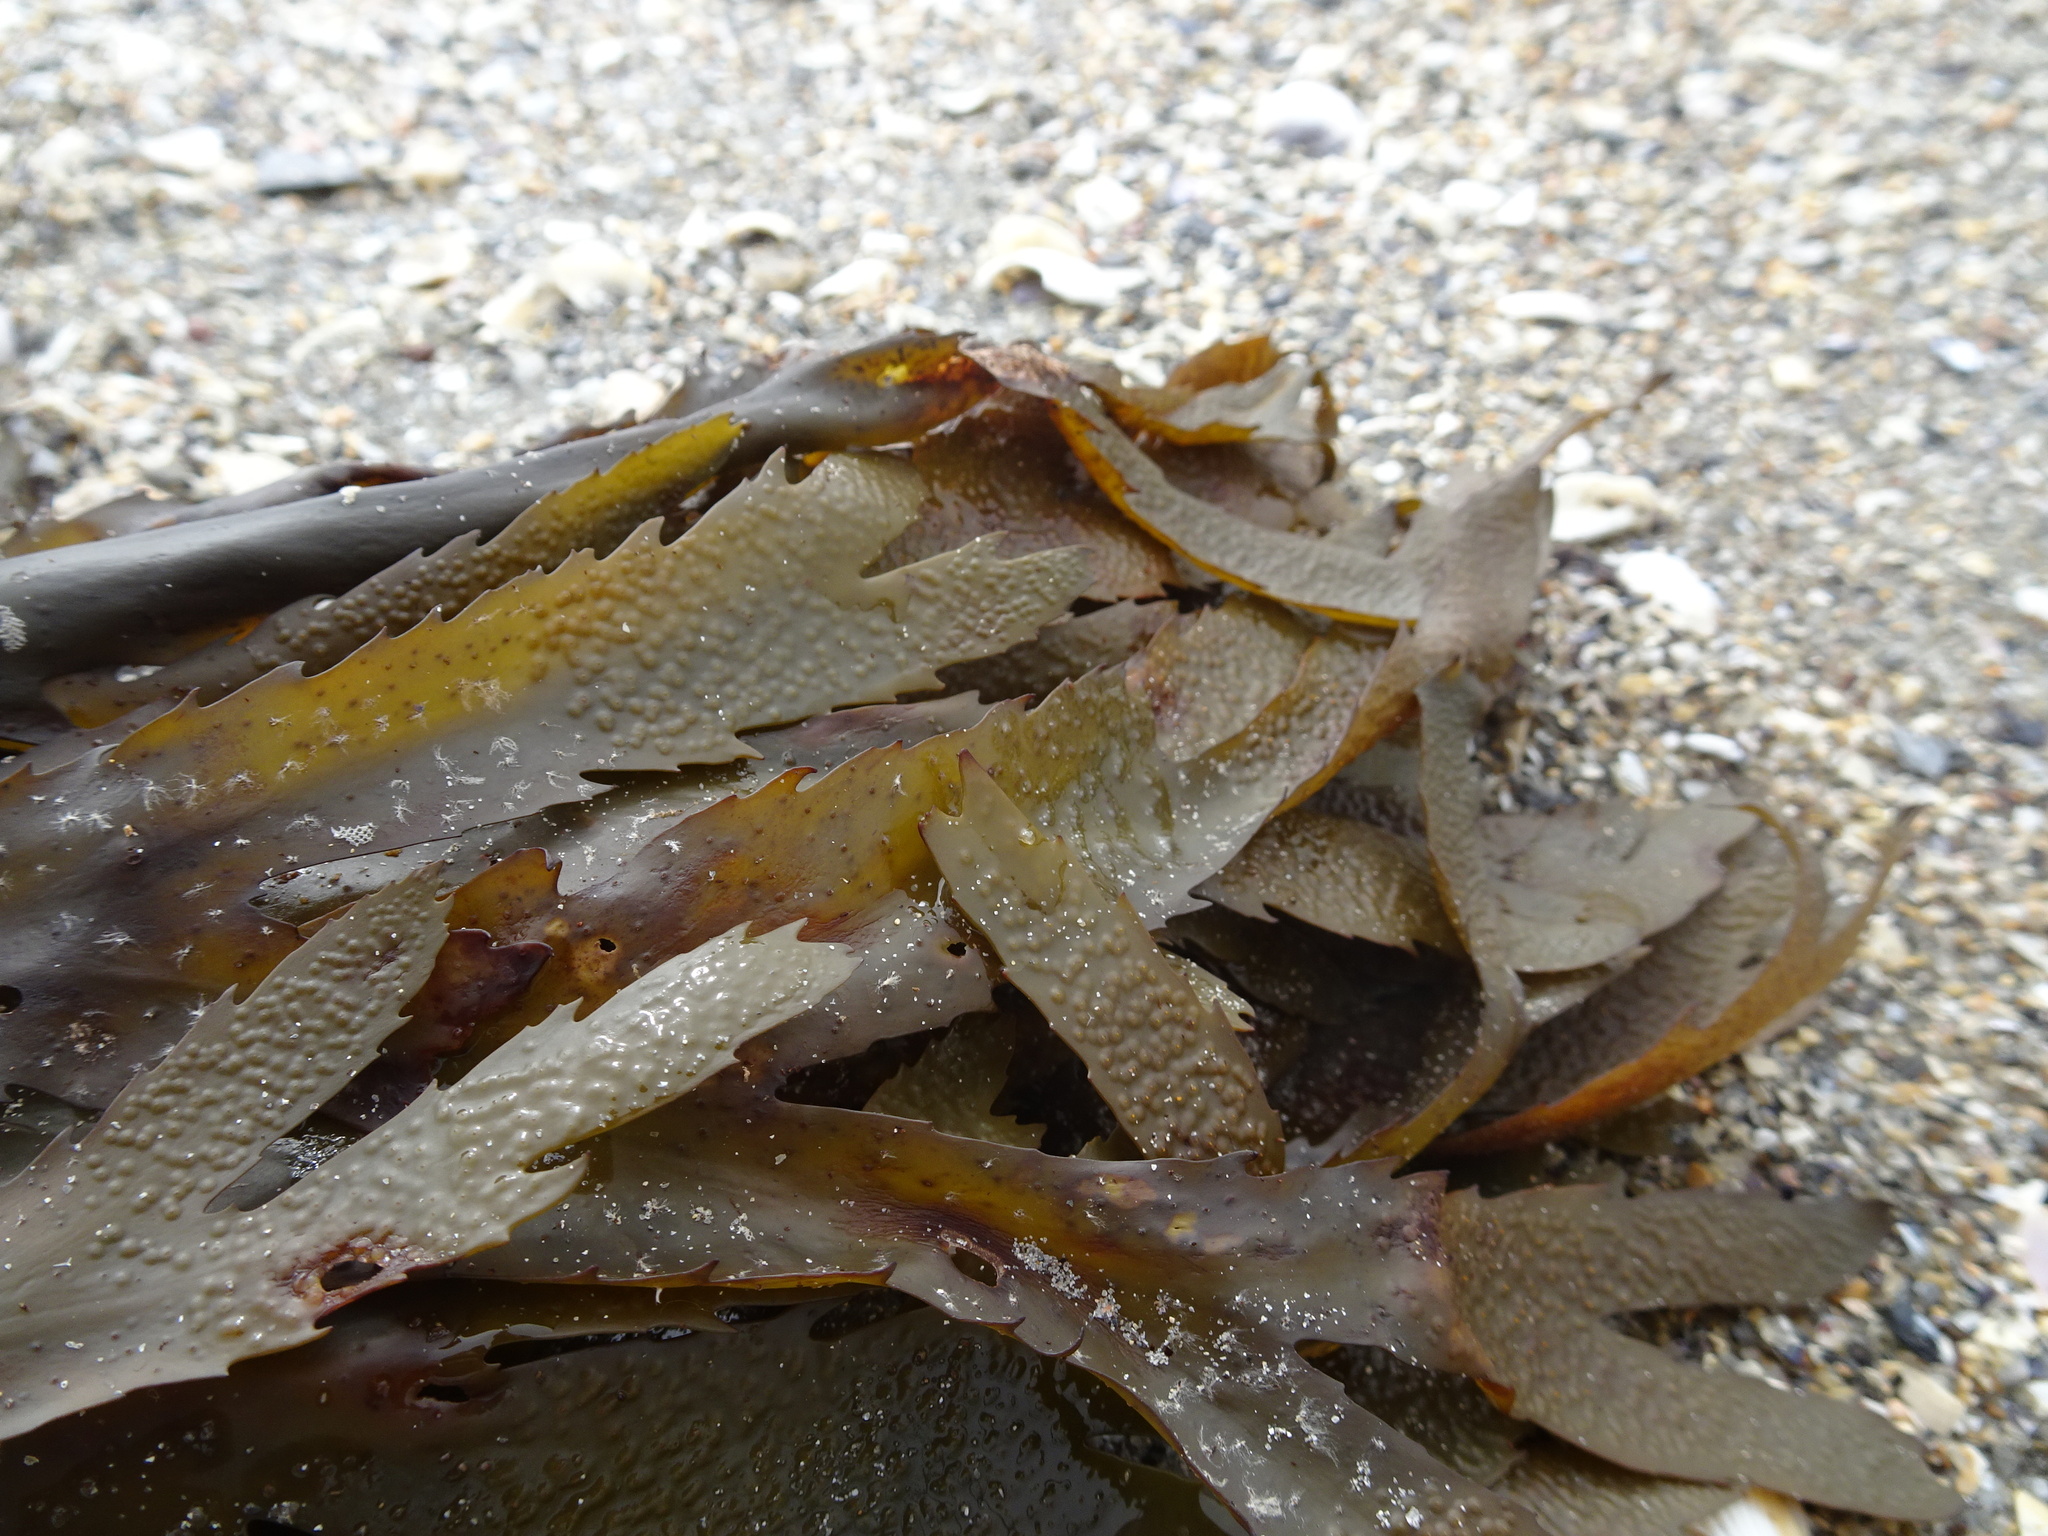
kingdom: Chromista
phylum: Ochrophyta
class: Phaeophyceae
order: Fucales
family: Fucaceae
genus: Fucus
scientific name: Fucus serratus
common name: Toothed wrack
